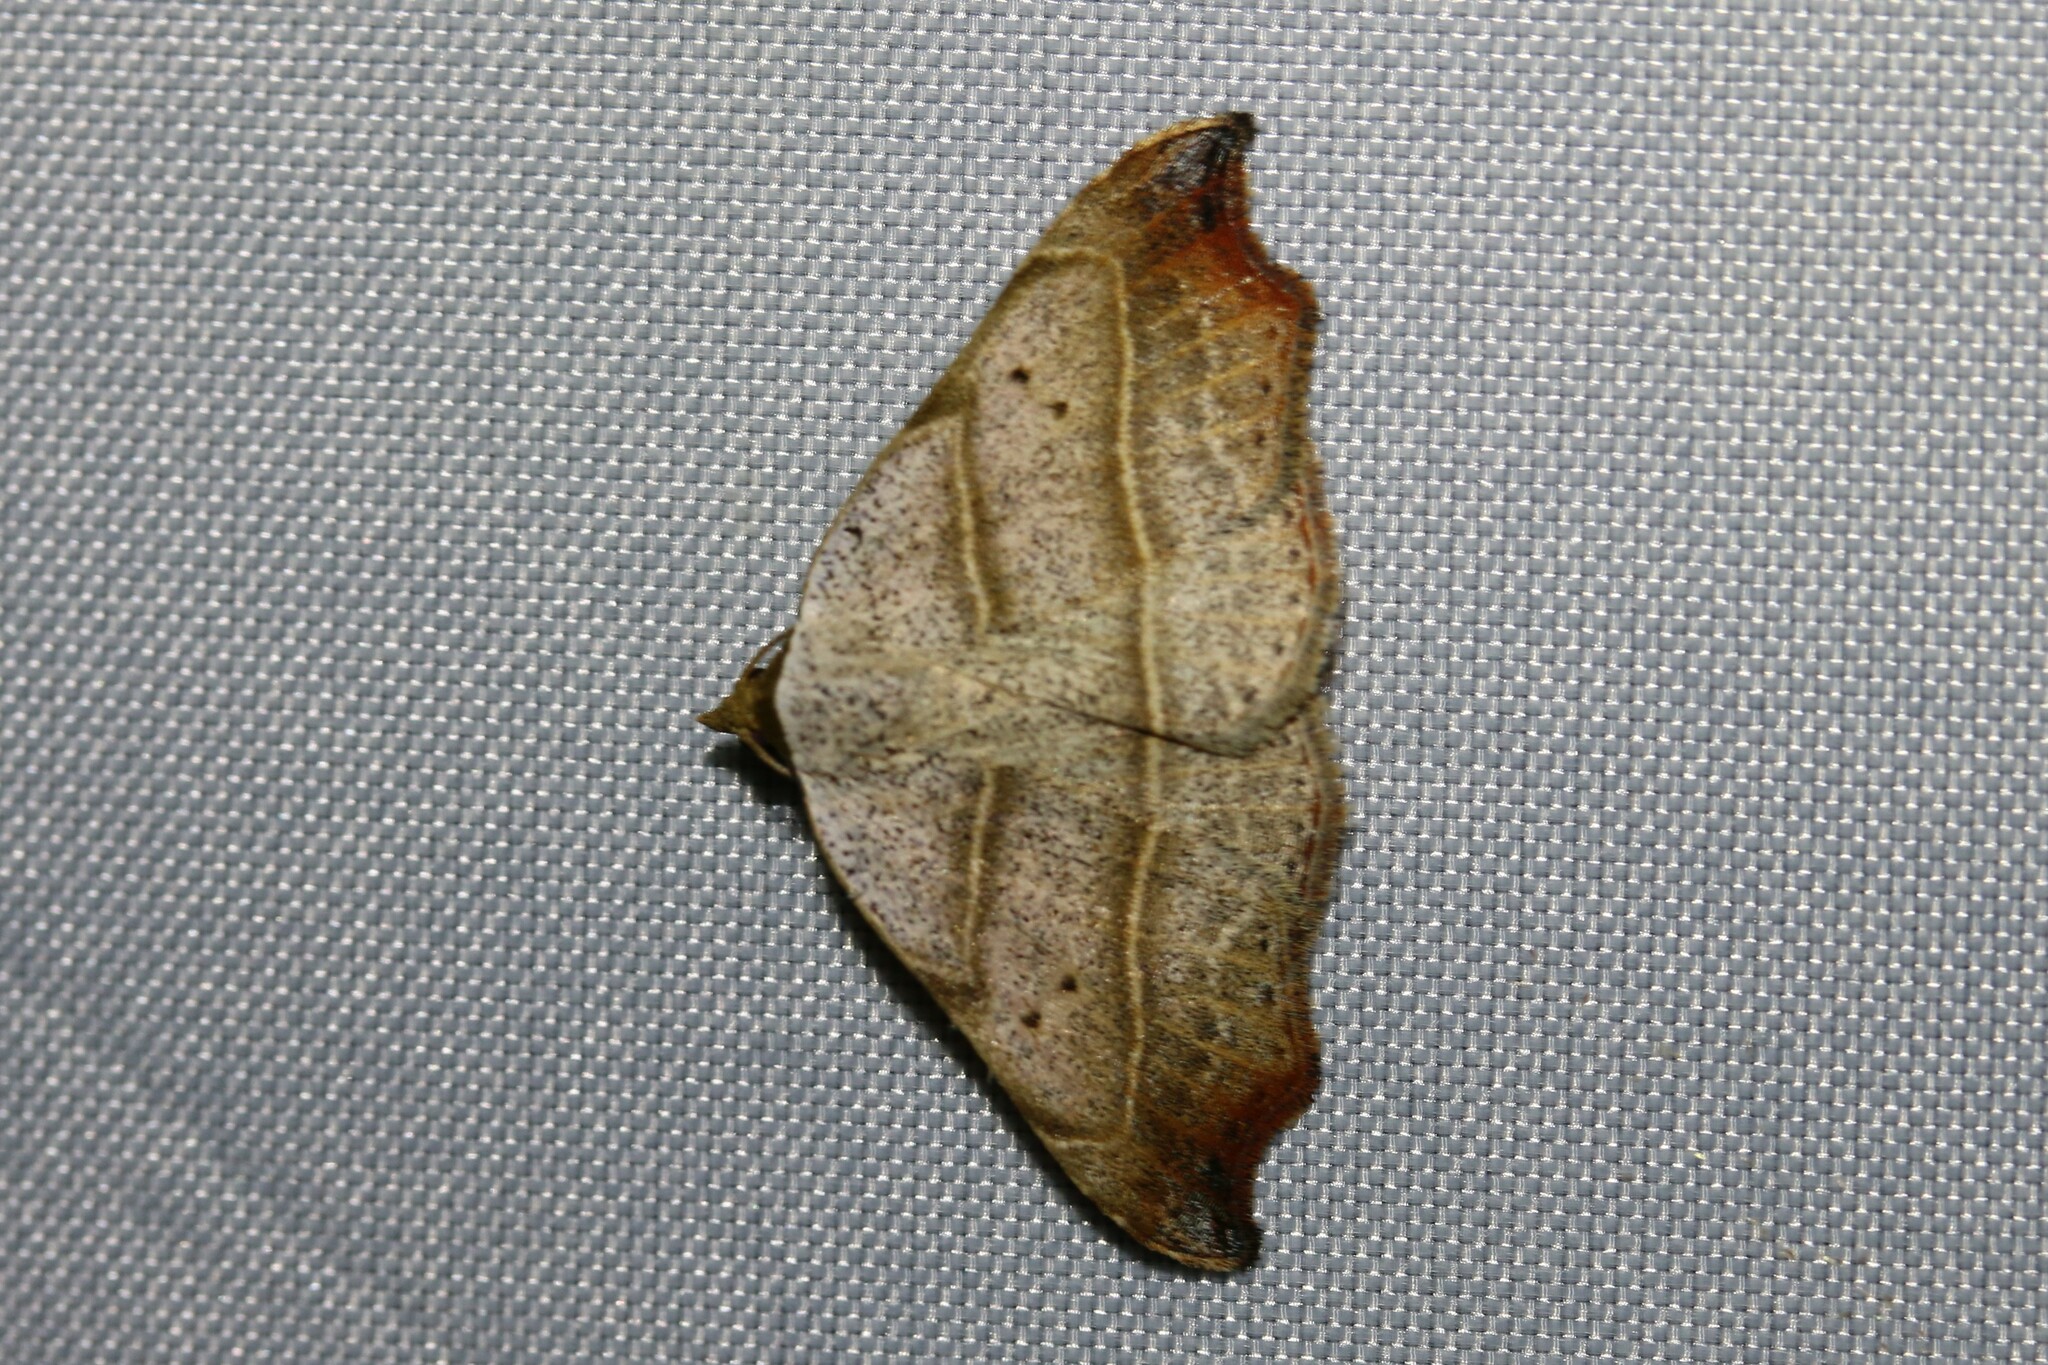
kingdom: Animalia
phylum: Arthropoda
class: Insecta
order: Lepidoptera
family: Erebidae
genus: Laspeyria
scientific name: Laspeyria flexula
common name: Beautiful hook-tip
